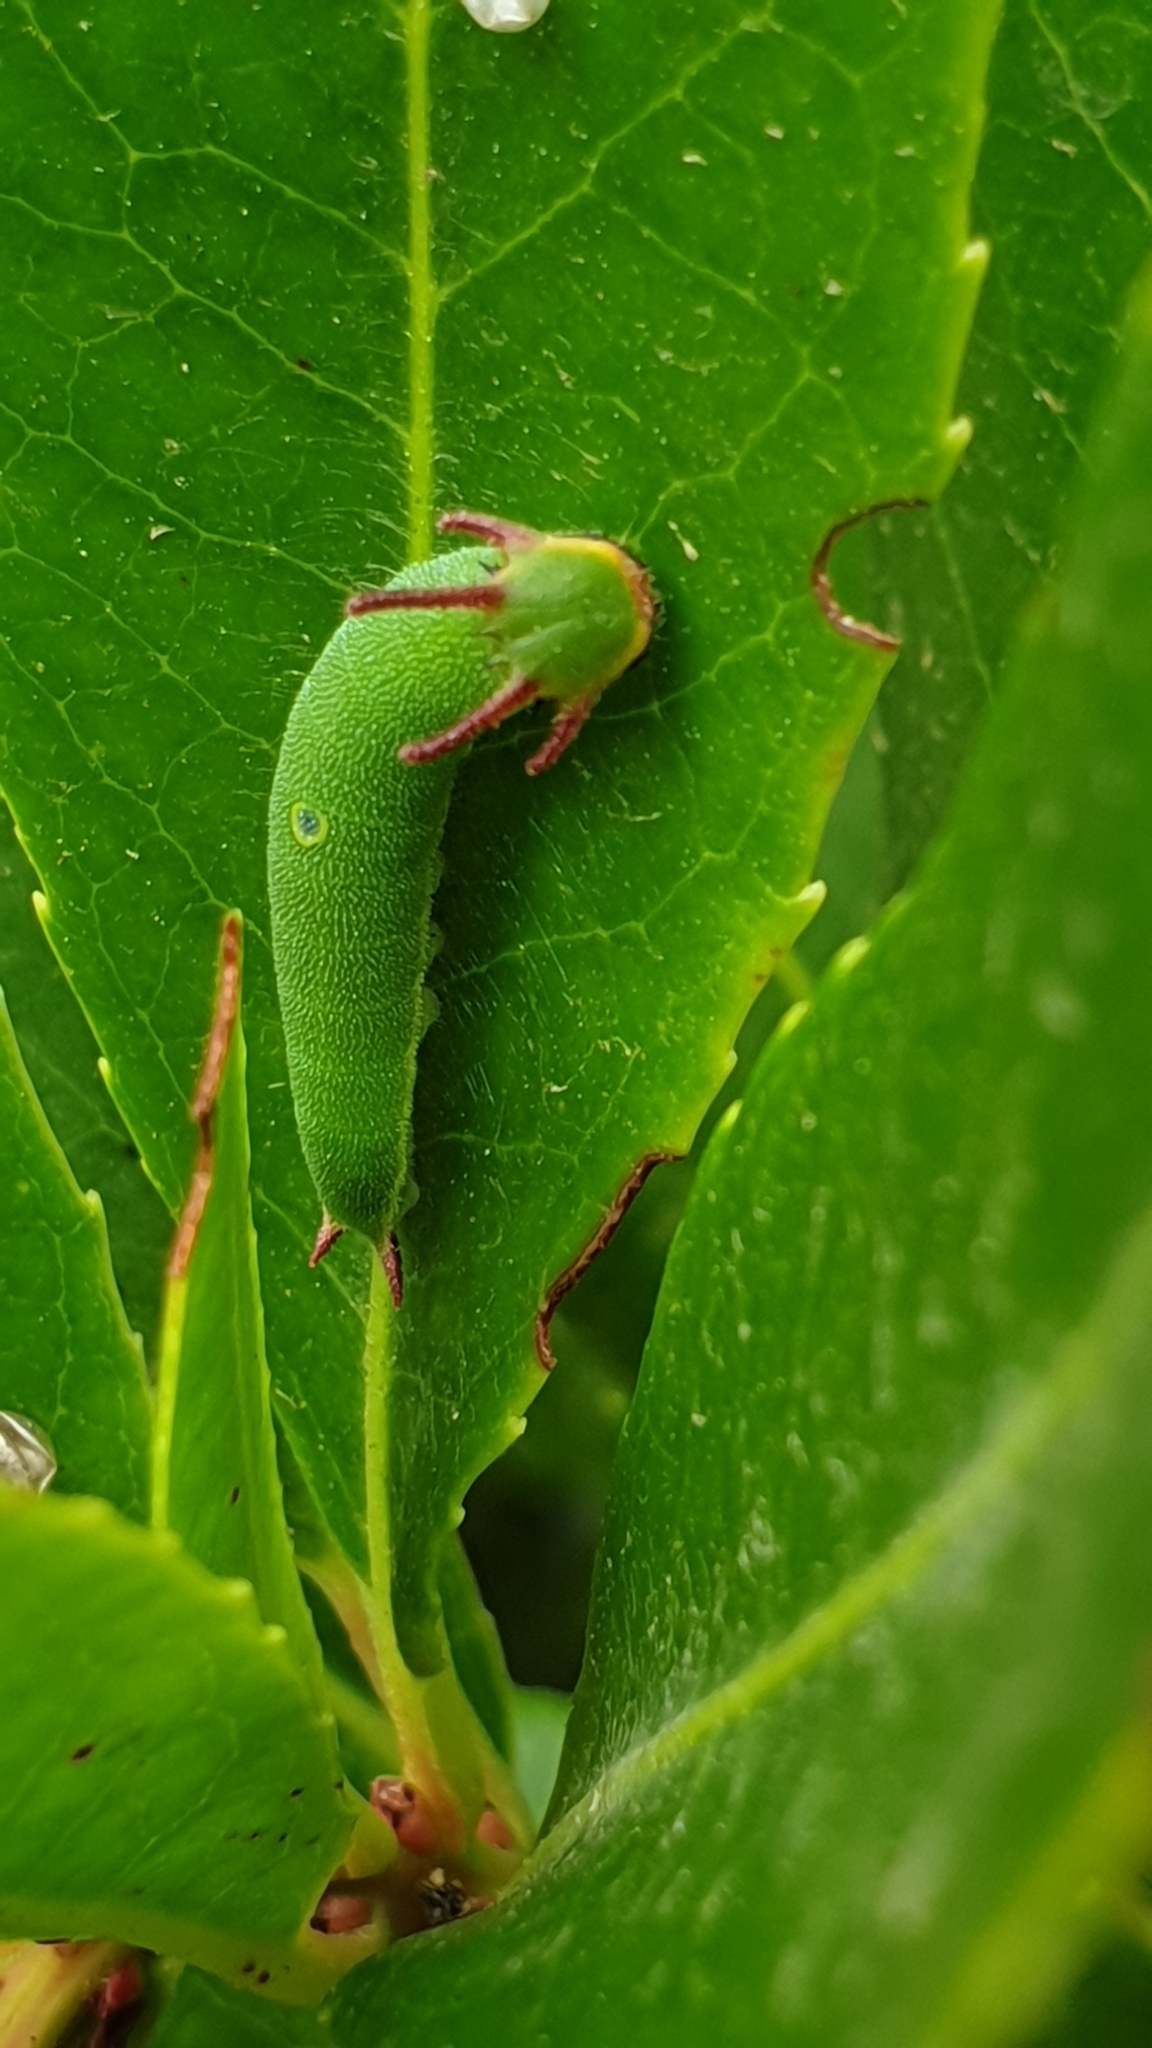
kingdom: Animalia
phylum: Arthropoda
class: Insecta
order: Lepidoptera
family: Nymphalidae
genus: Charaxes
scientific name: Charaxes jasius
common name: Two tailed pasha
